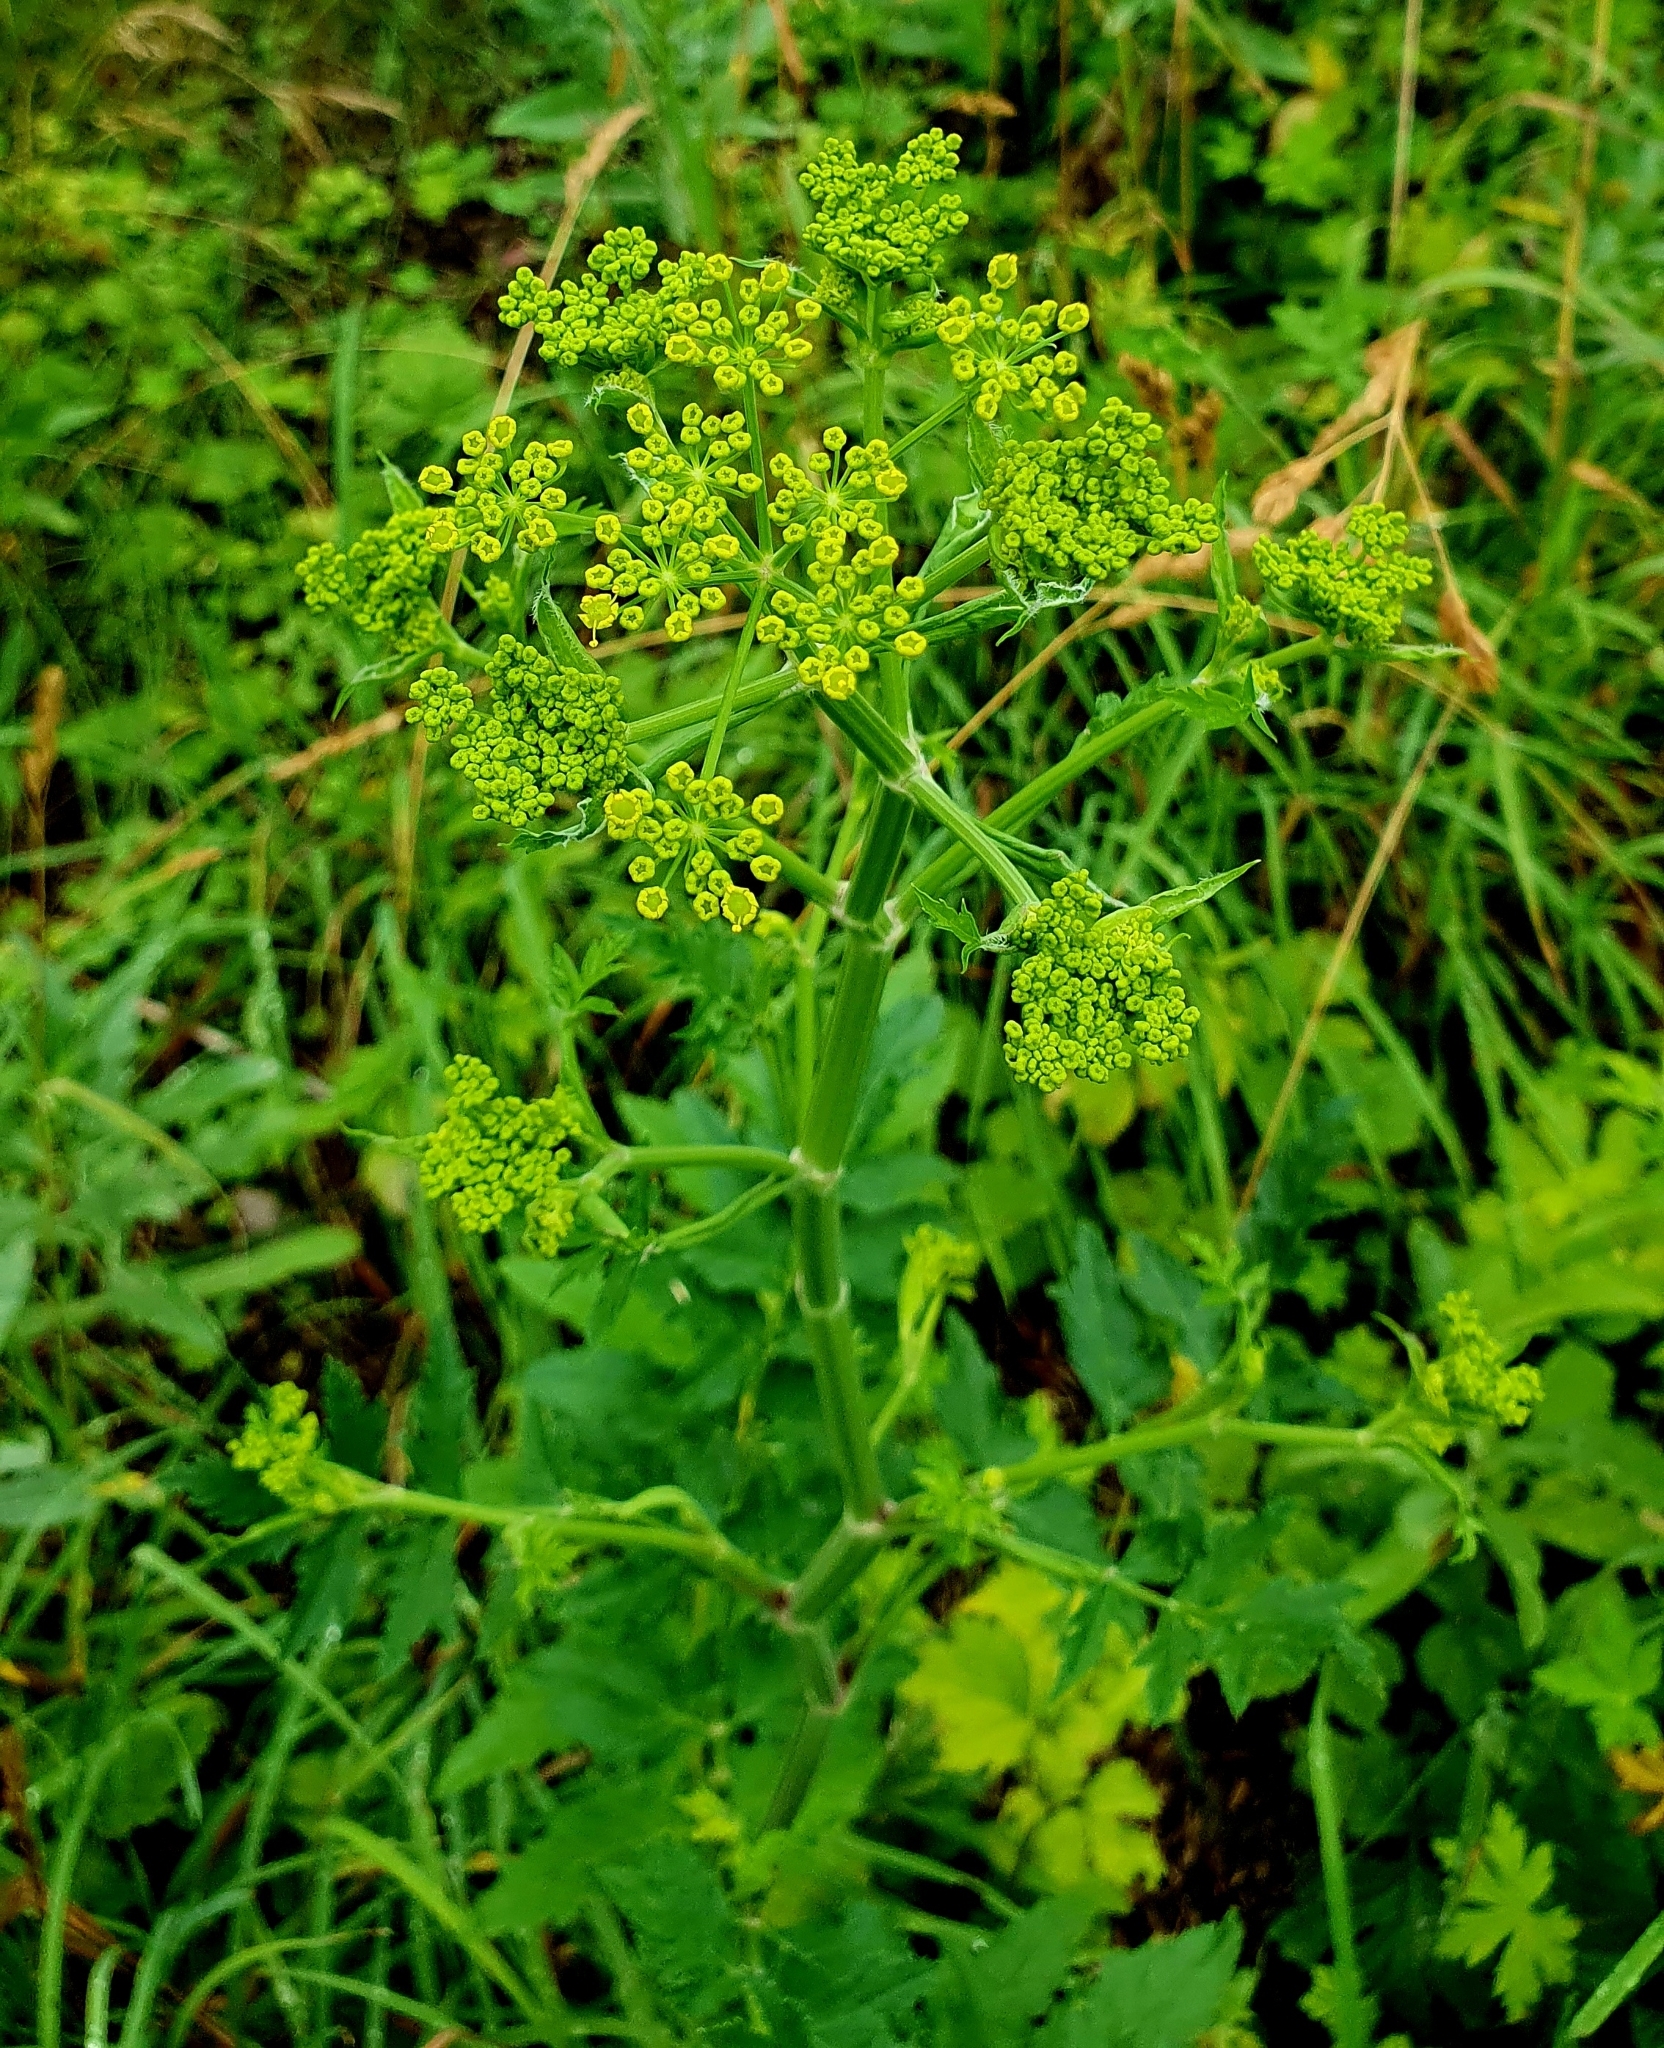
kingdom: Plantae
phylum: Tracheophyta
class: Magnoliopsida
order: Apiales
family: Apiaceae
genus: Pastinaca
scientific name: Pastinaca sativa
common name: Wild parsnip
